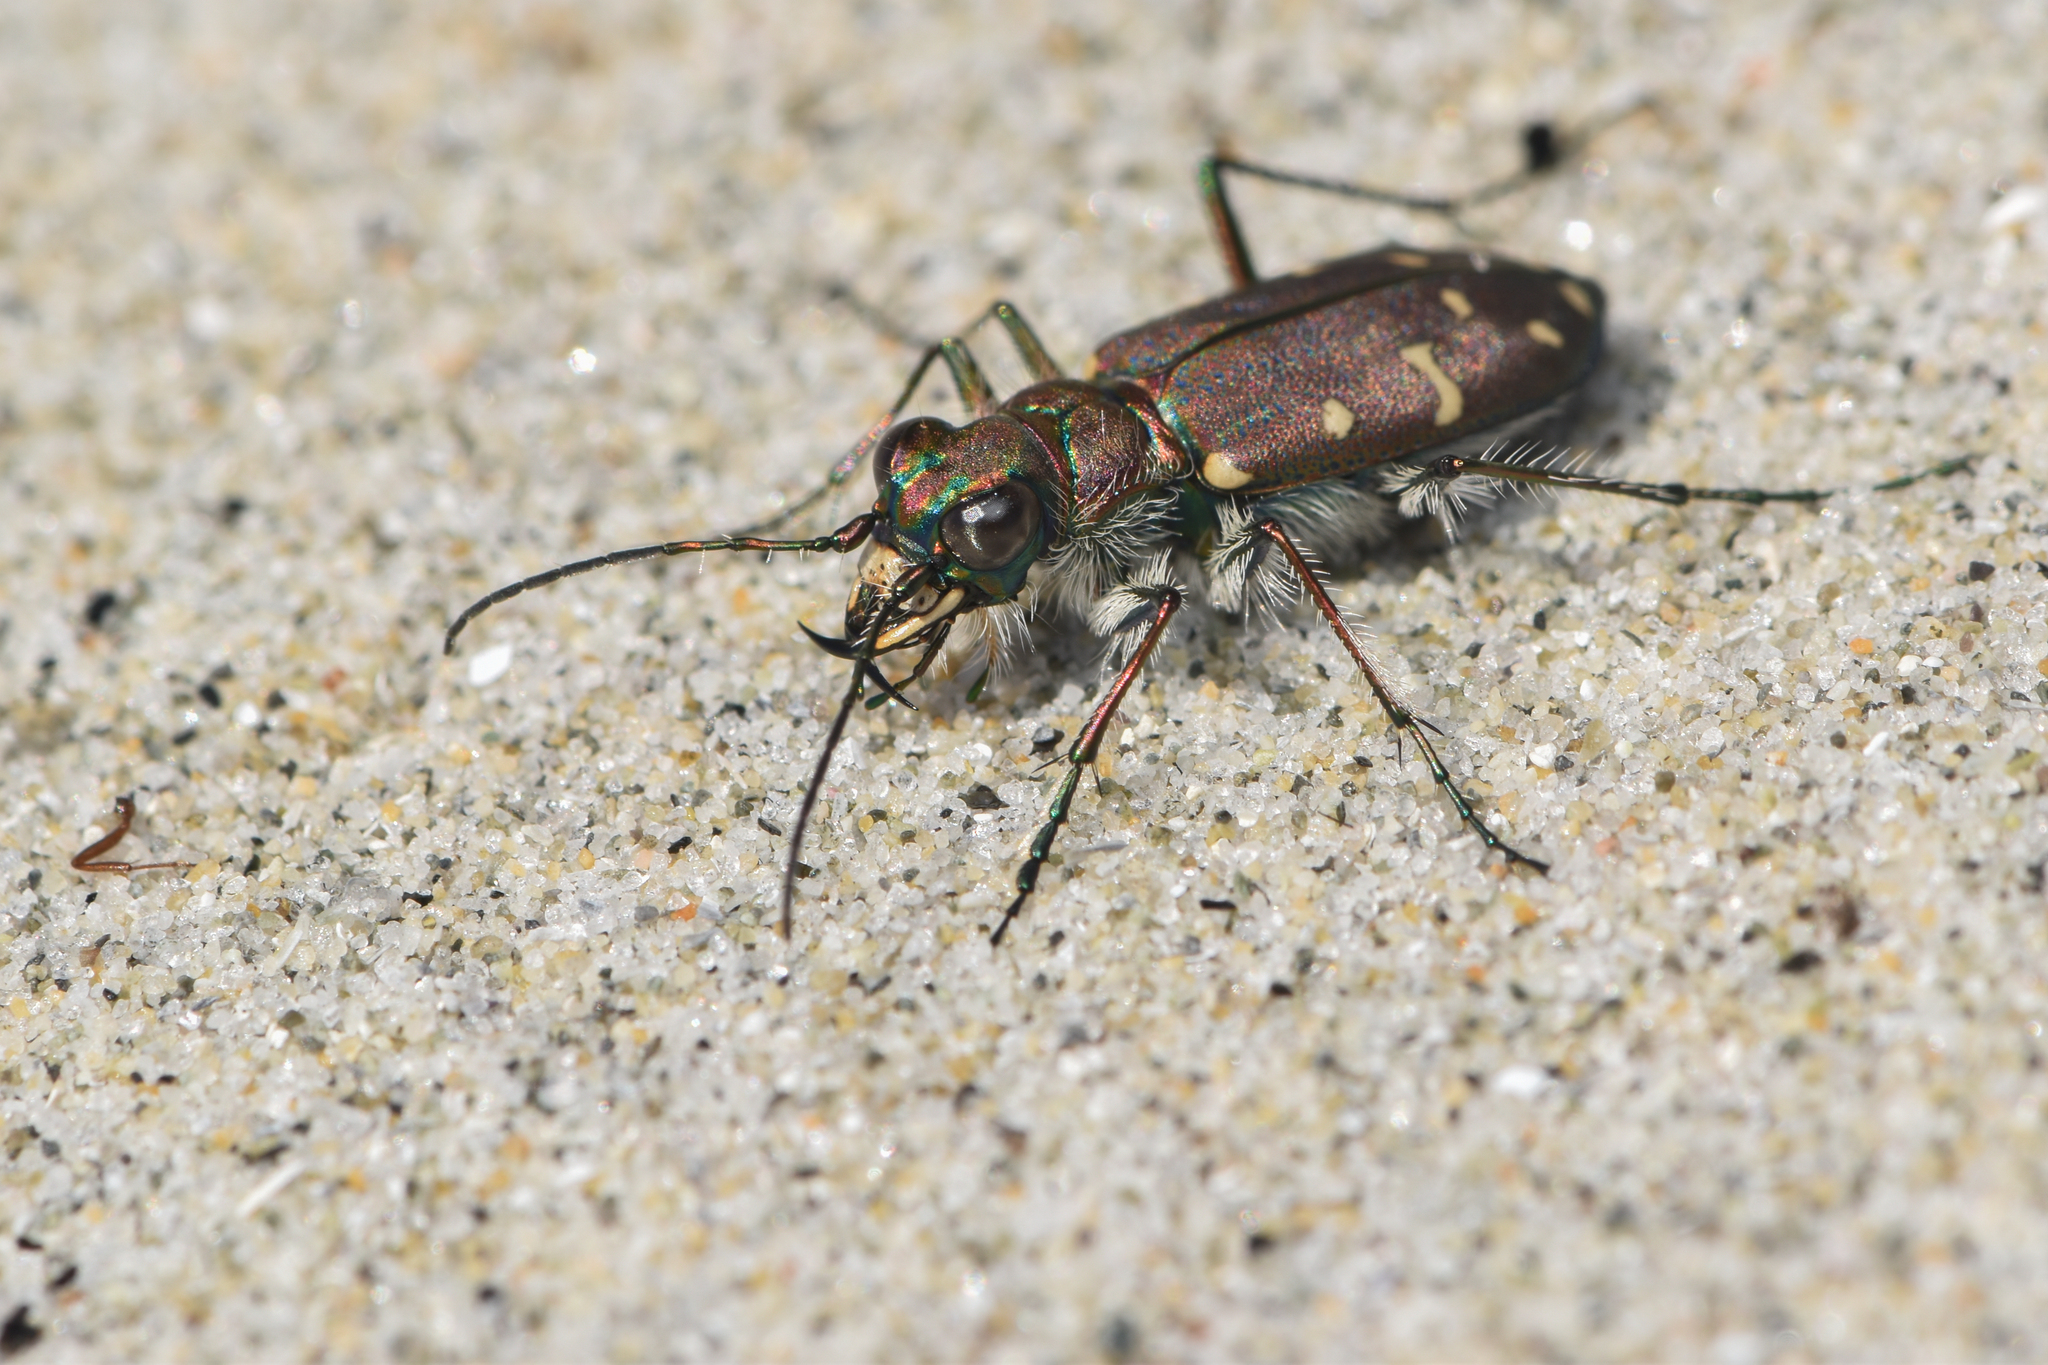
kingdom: Animalia
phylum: Arthropoda
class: Insecta
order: Coleoptera
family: Carabidae
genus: Cicindela
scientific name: Cicindela oregona
